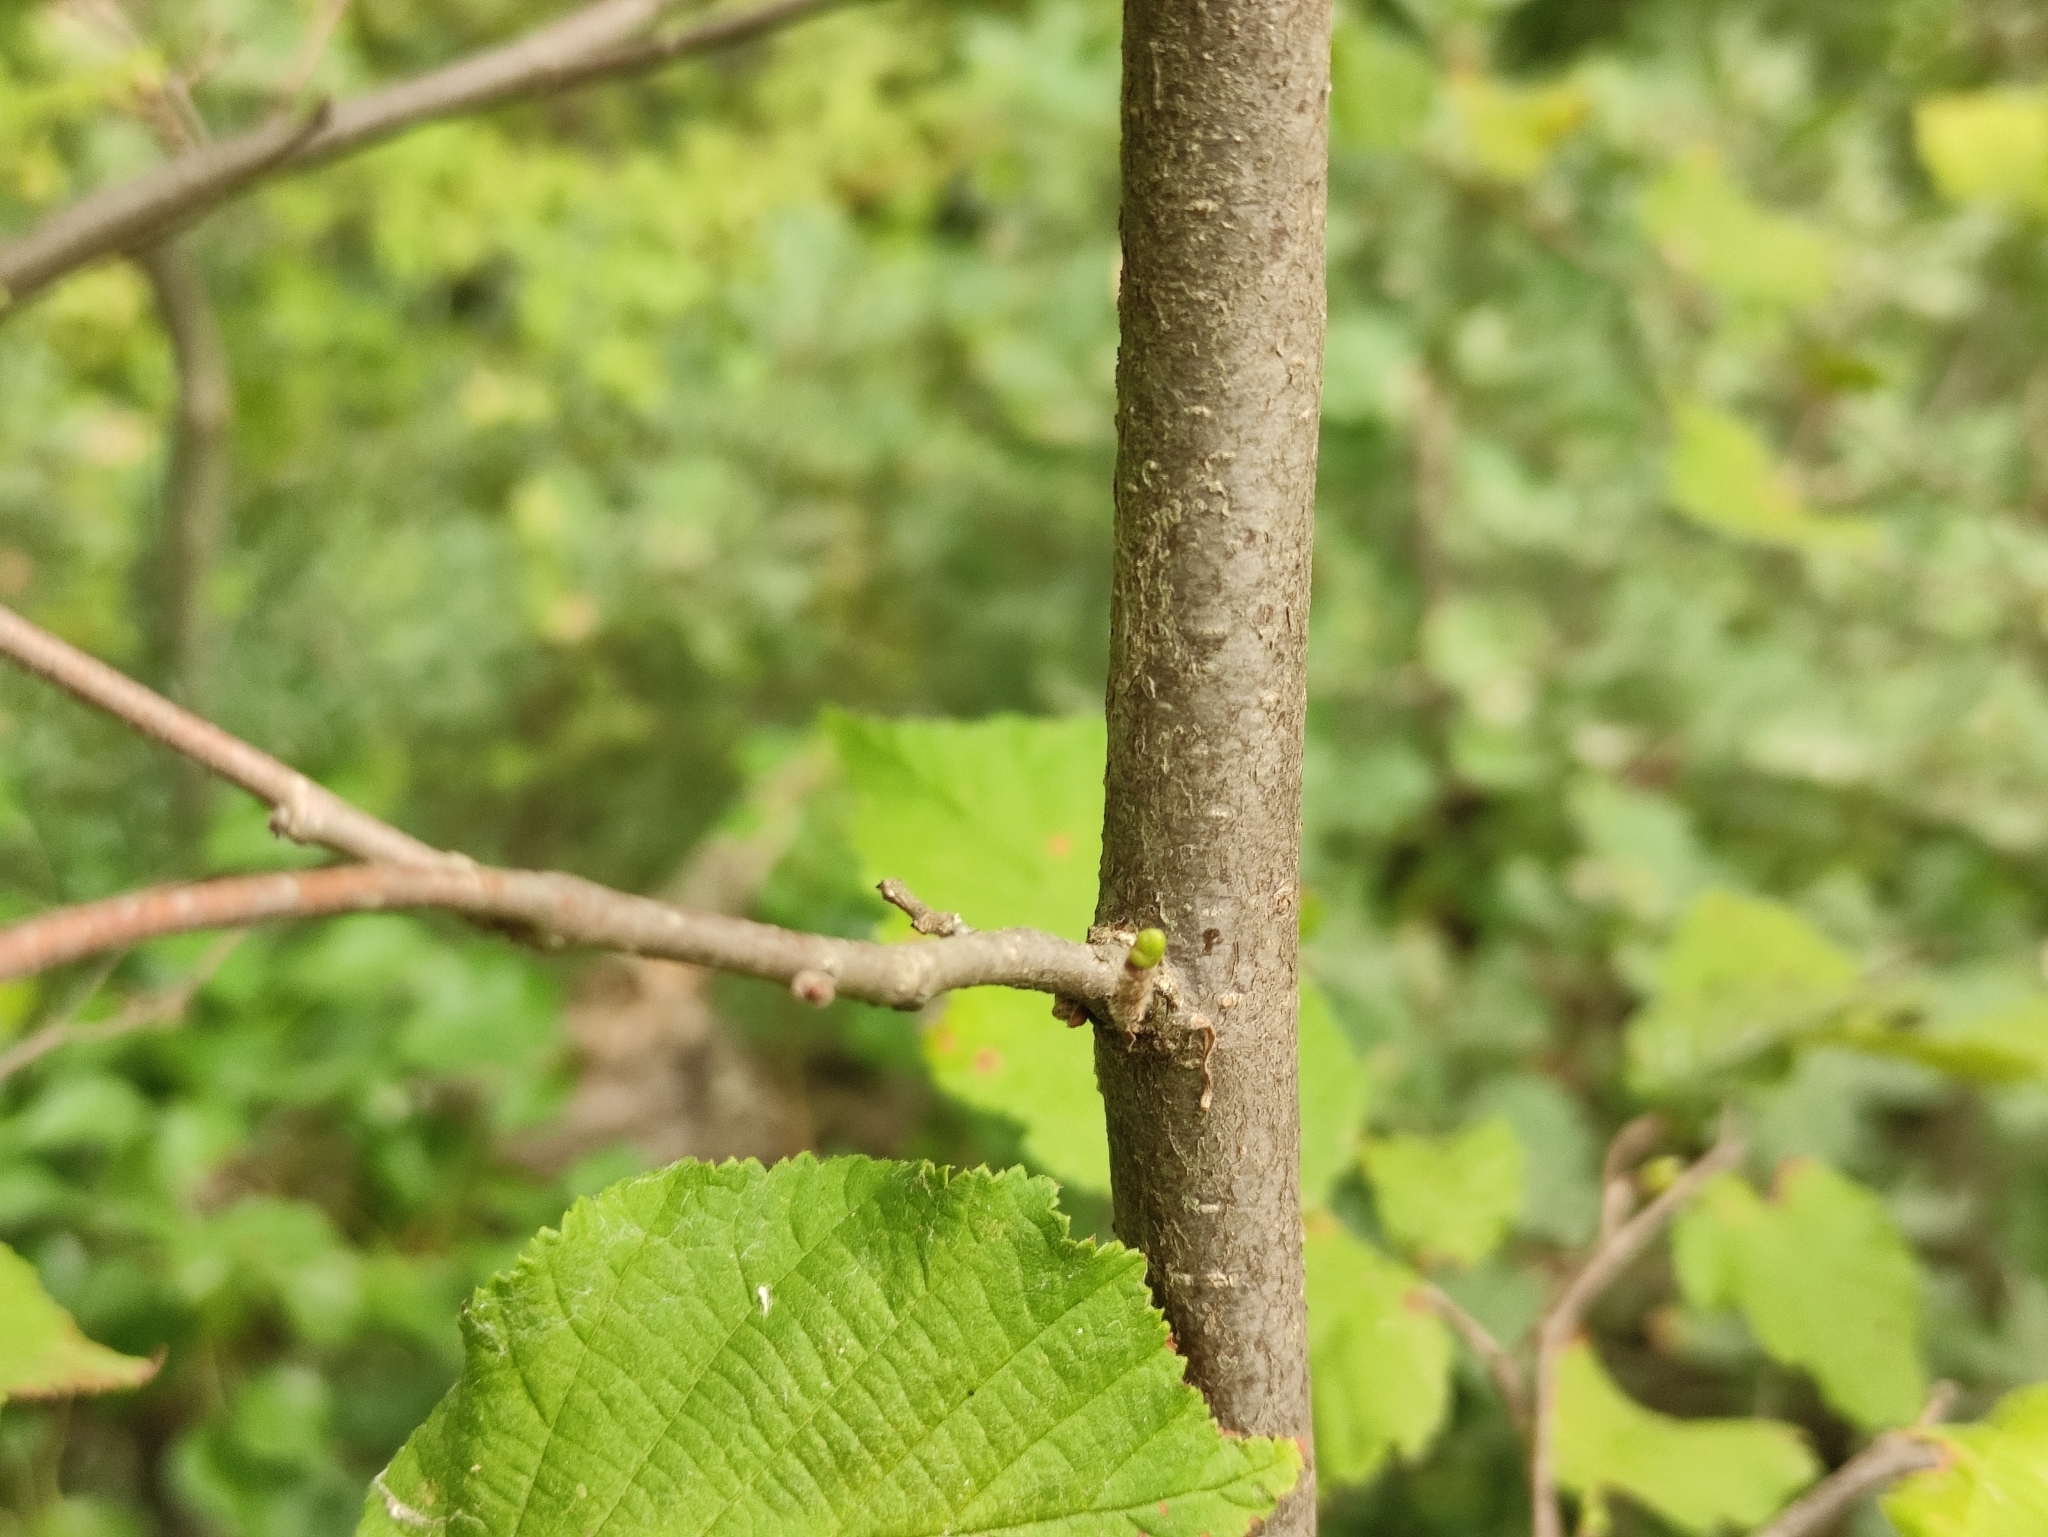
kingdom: Plantae
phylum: Tracheophyta
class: Magnoliopsida
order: Fagales
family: Betulaceae
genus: Corylus
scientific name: Corylus avellana
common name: European hazel
